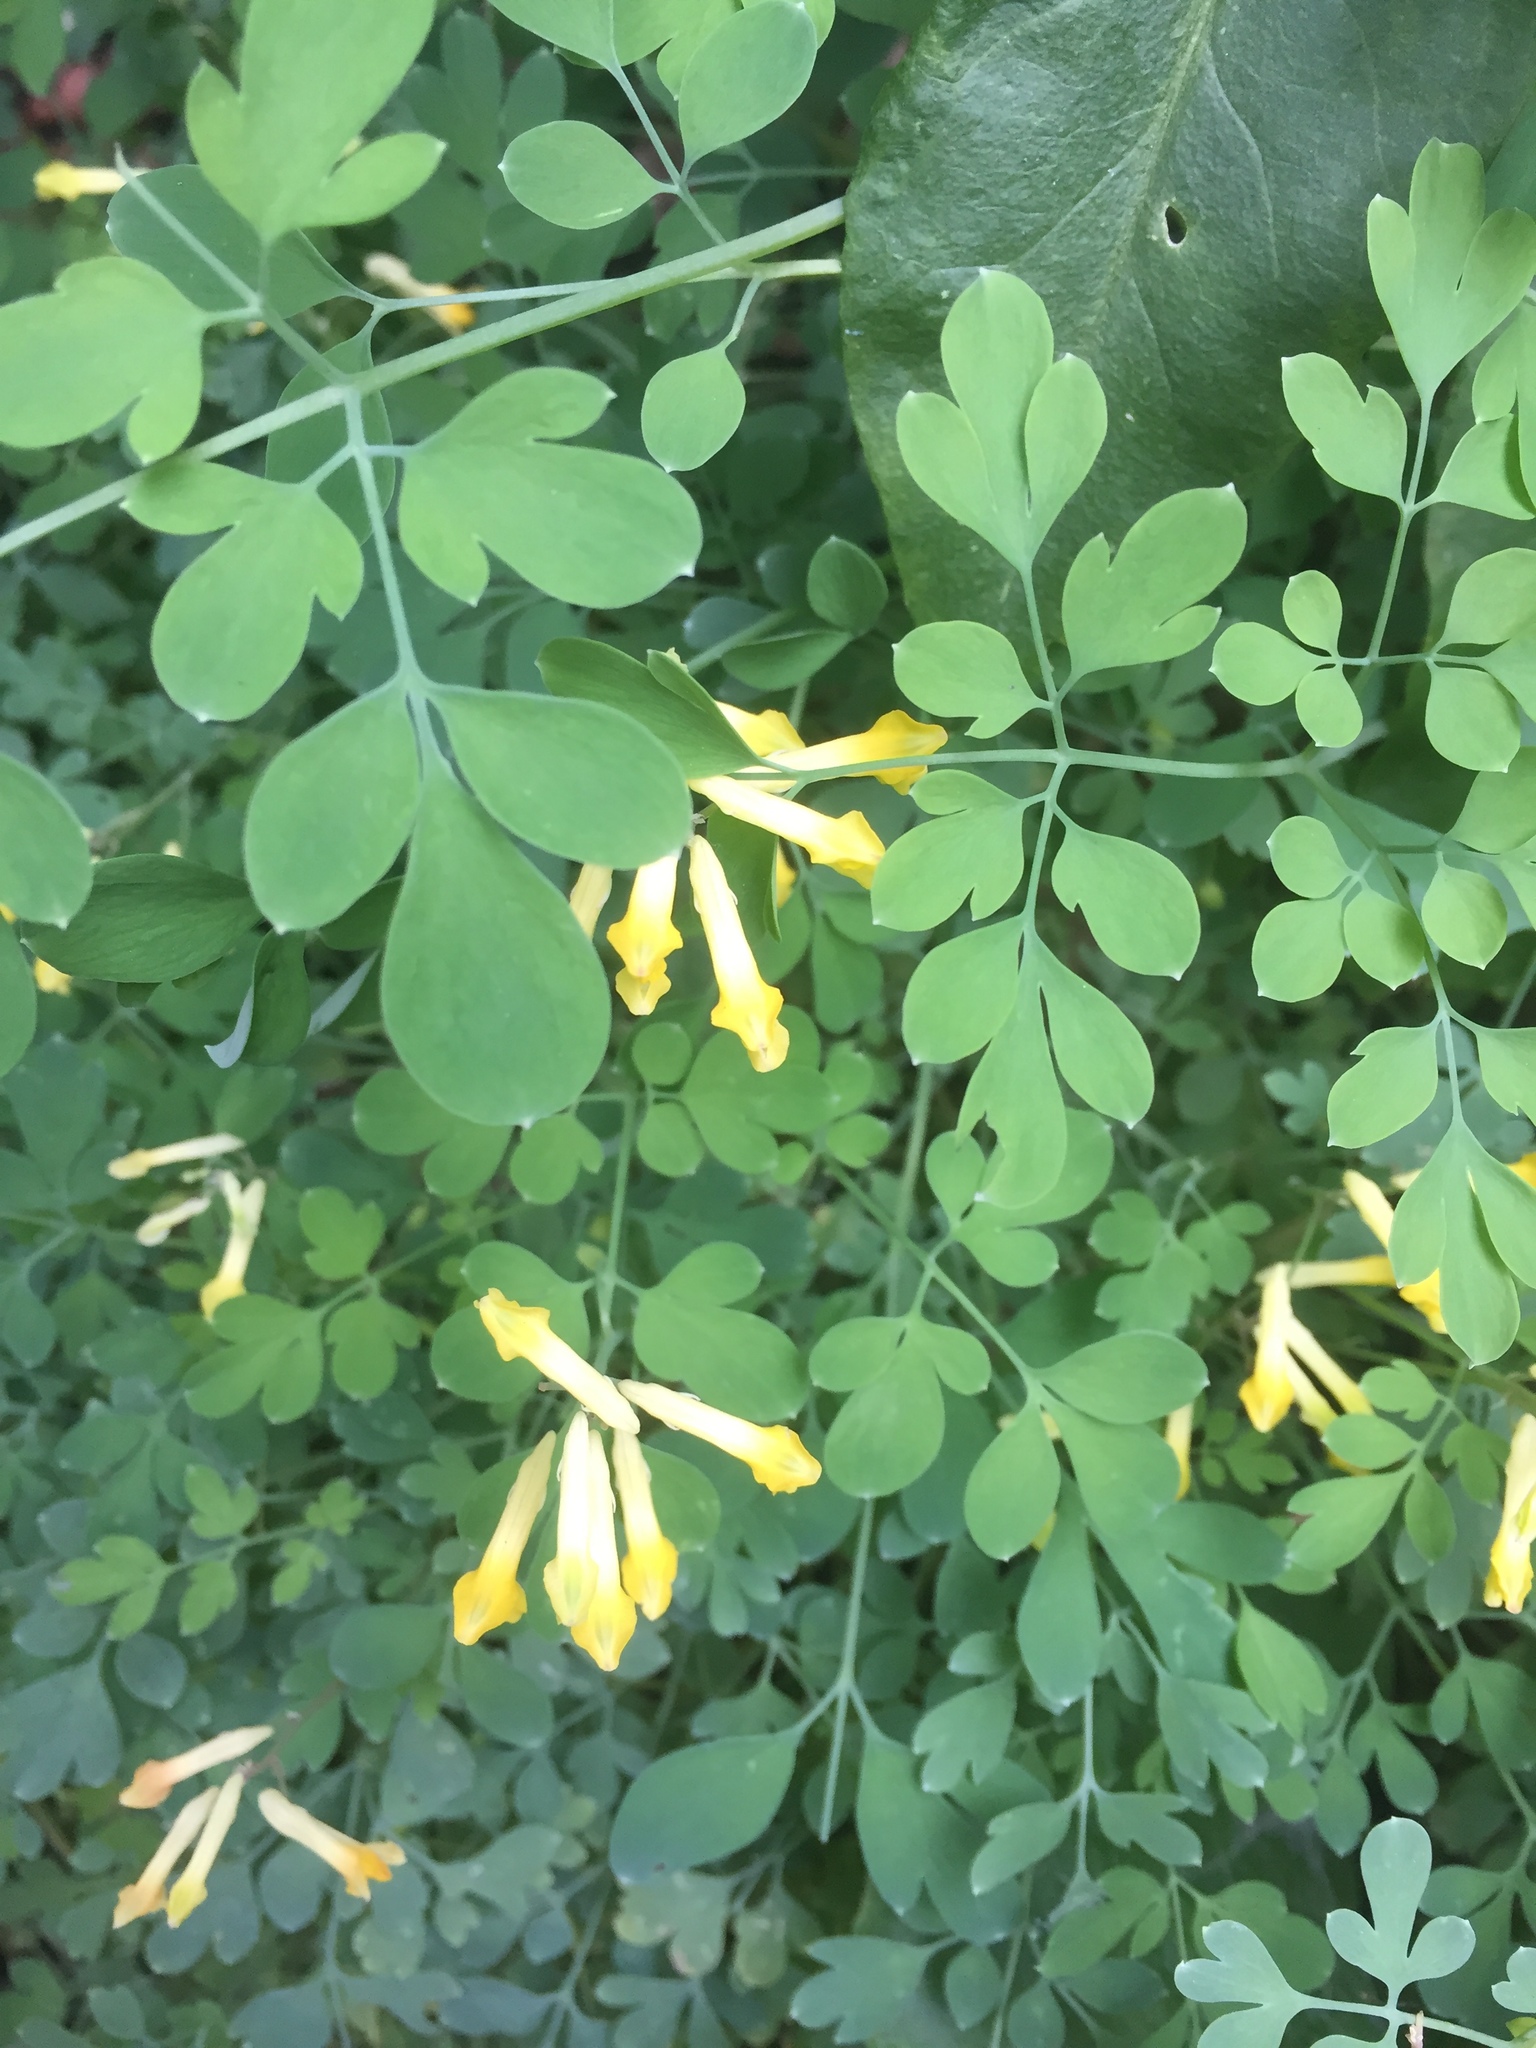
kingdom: Plantae
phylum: Tracheophyta
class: Magnoliopsida
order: Ranunculales
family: Papaveraceae
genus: Pseudofumaria
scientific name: Pseudofumaria lutea
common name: Yellow corydalis
